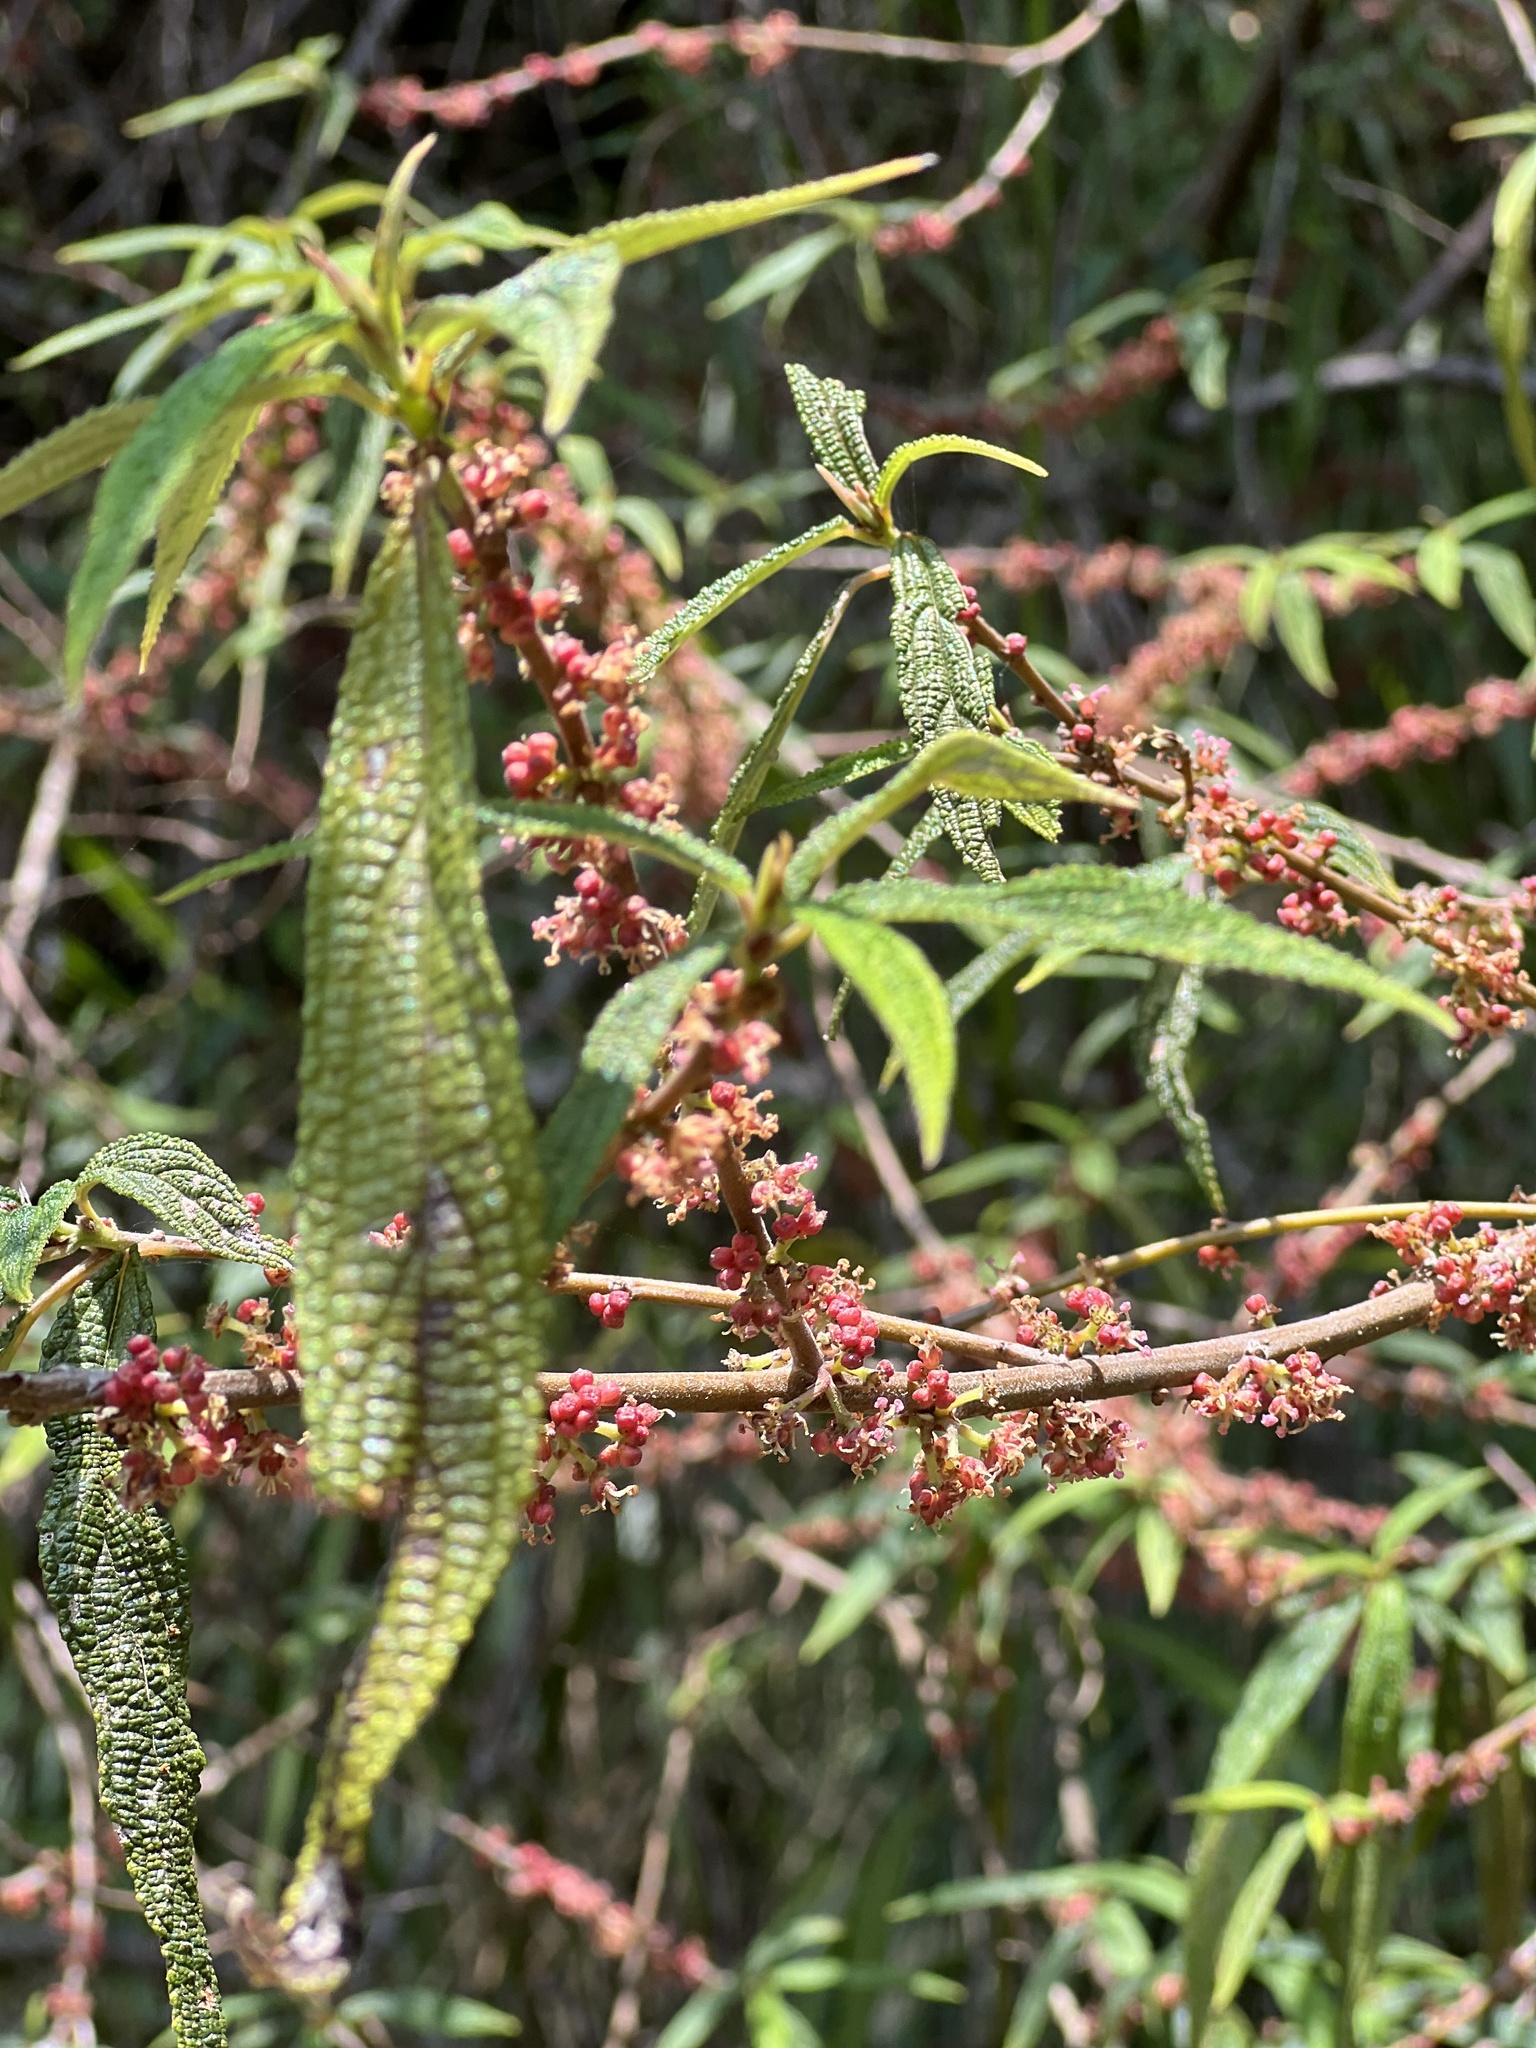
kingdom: Plantae
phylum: Tracheophyta
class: Magnoliopsida
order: Rosales
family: Urticaceae
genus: Debregeasia
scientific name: Debregeasia orientalis
